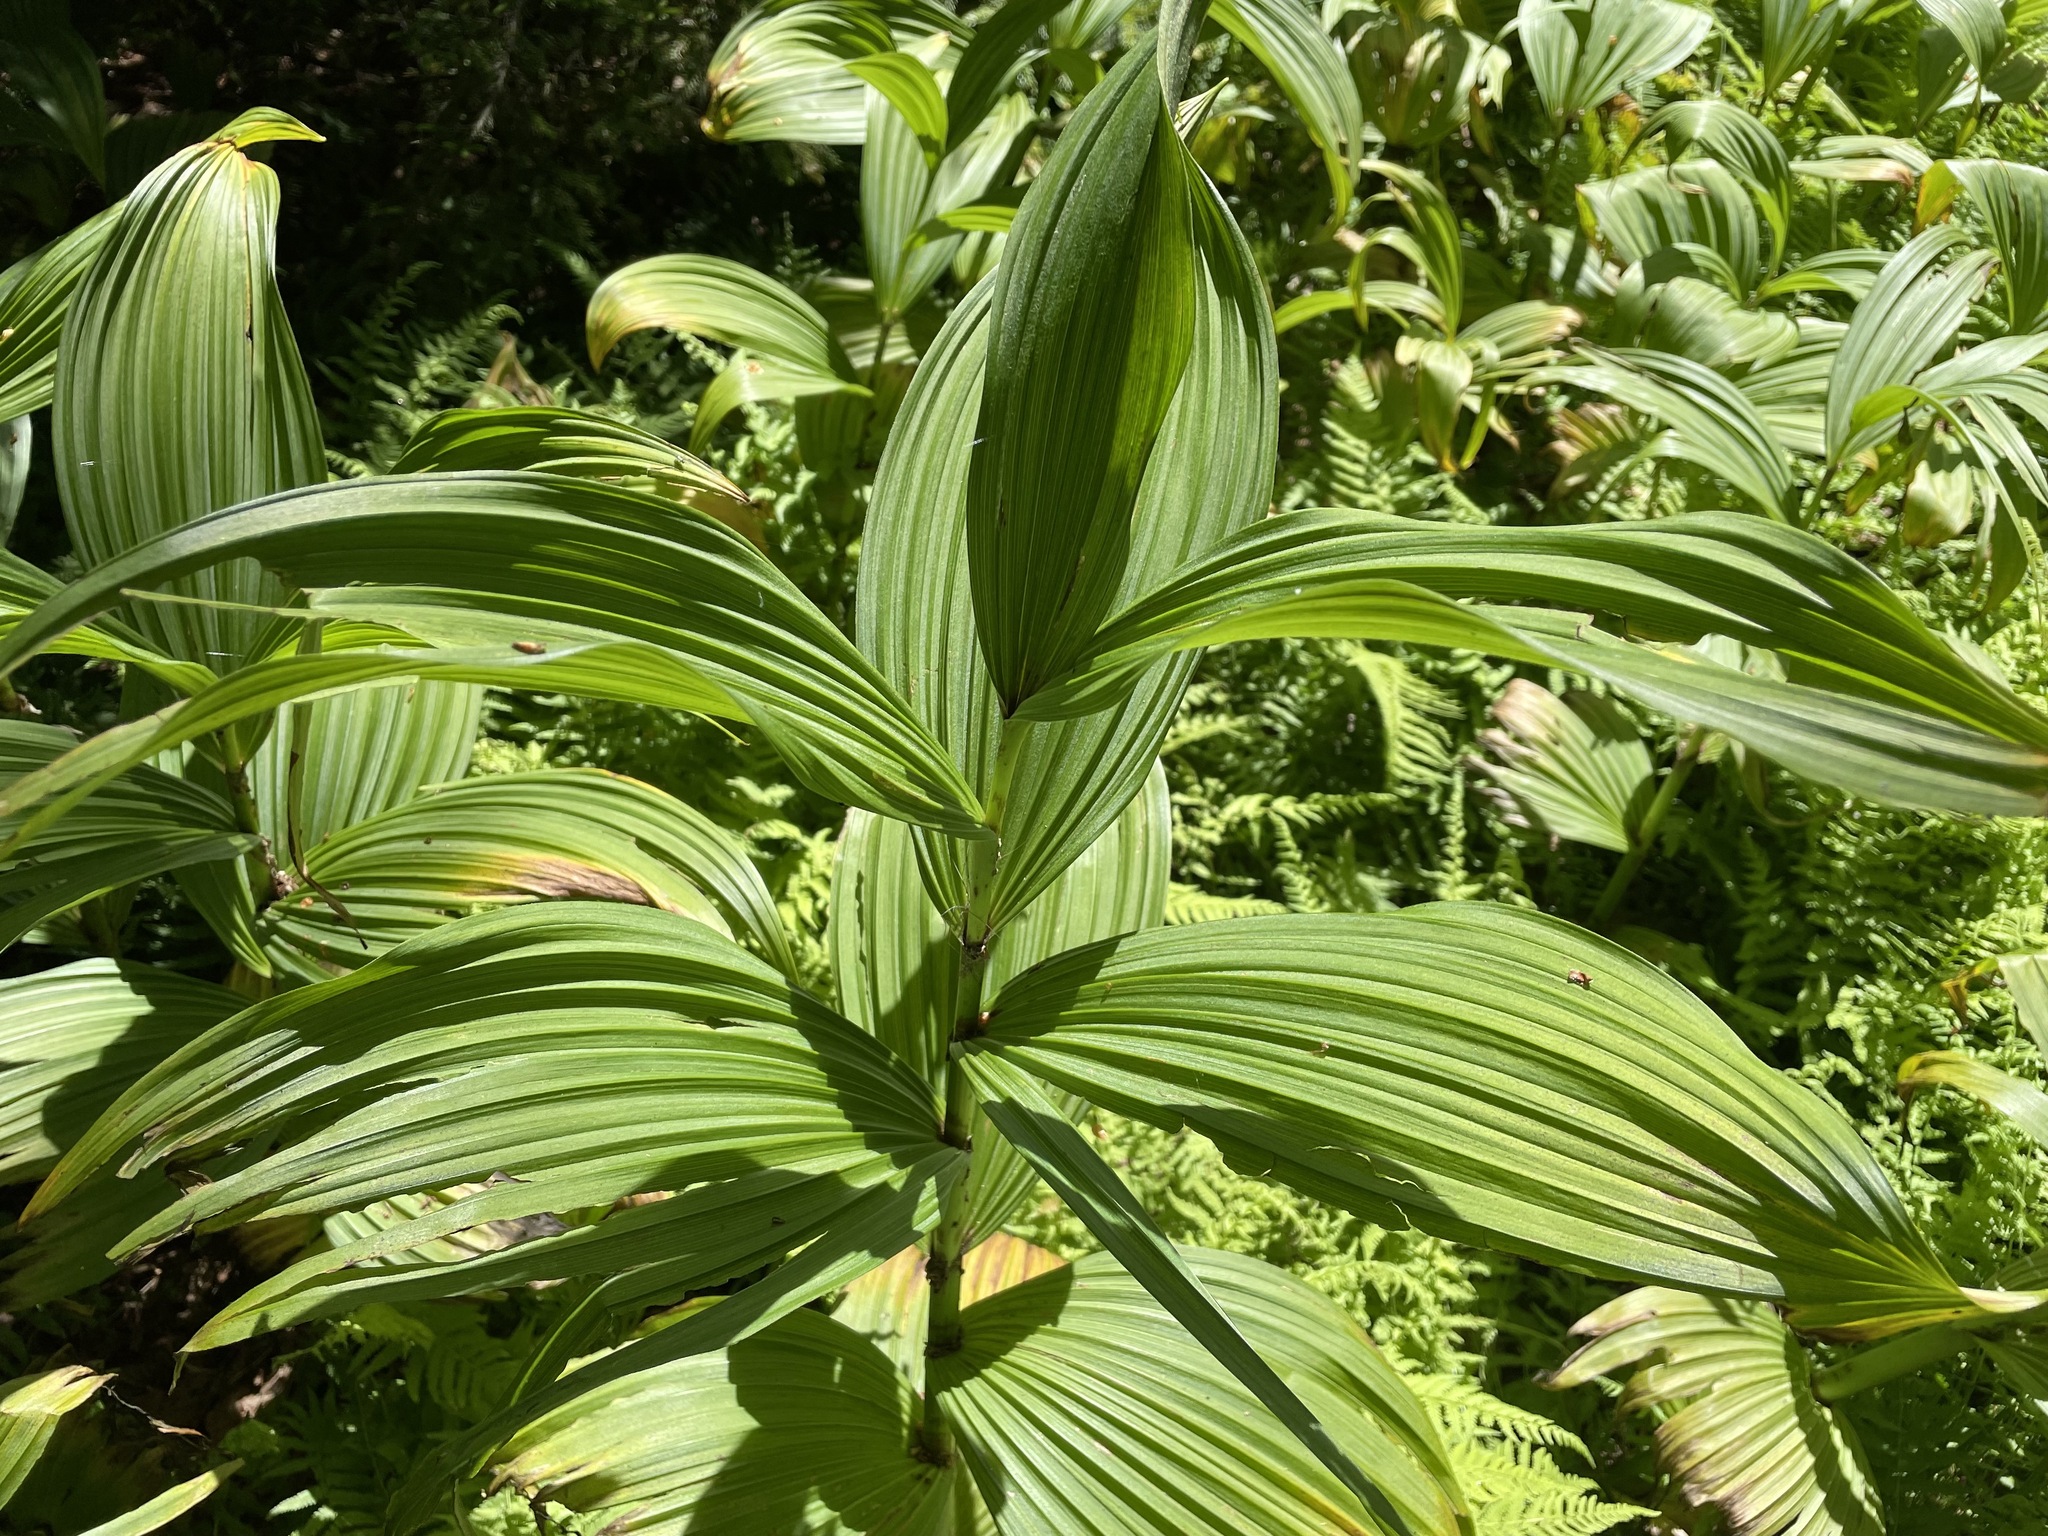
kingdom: Plantae
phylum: Tracheophyta
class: Liliopsida
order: Liliales
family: Melanthiaceae
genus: Veratrum
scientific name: Veratrum viride
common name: American false hellebore
